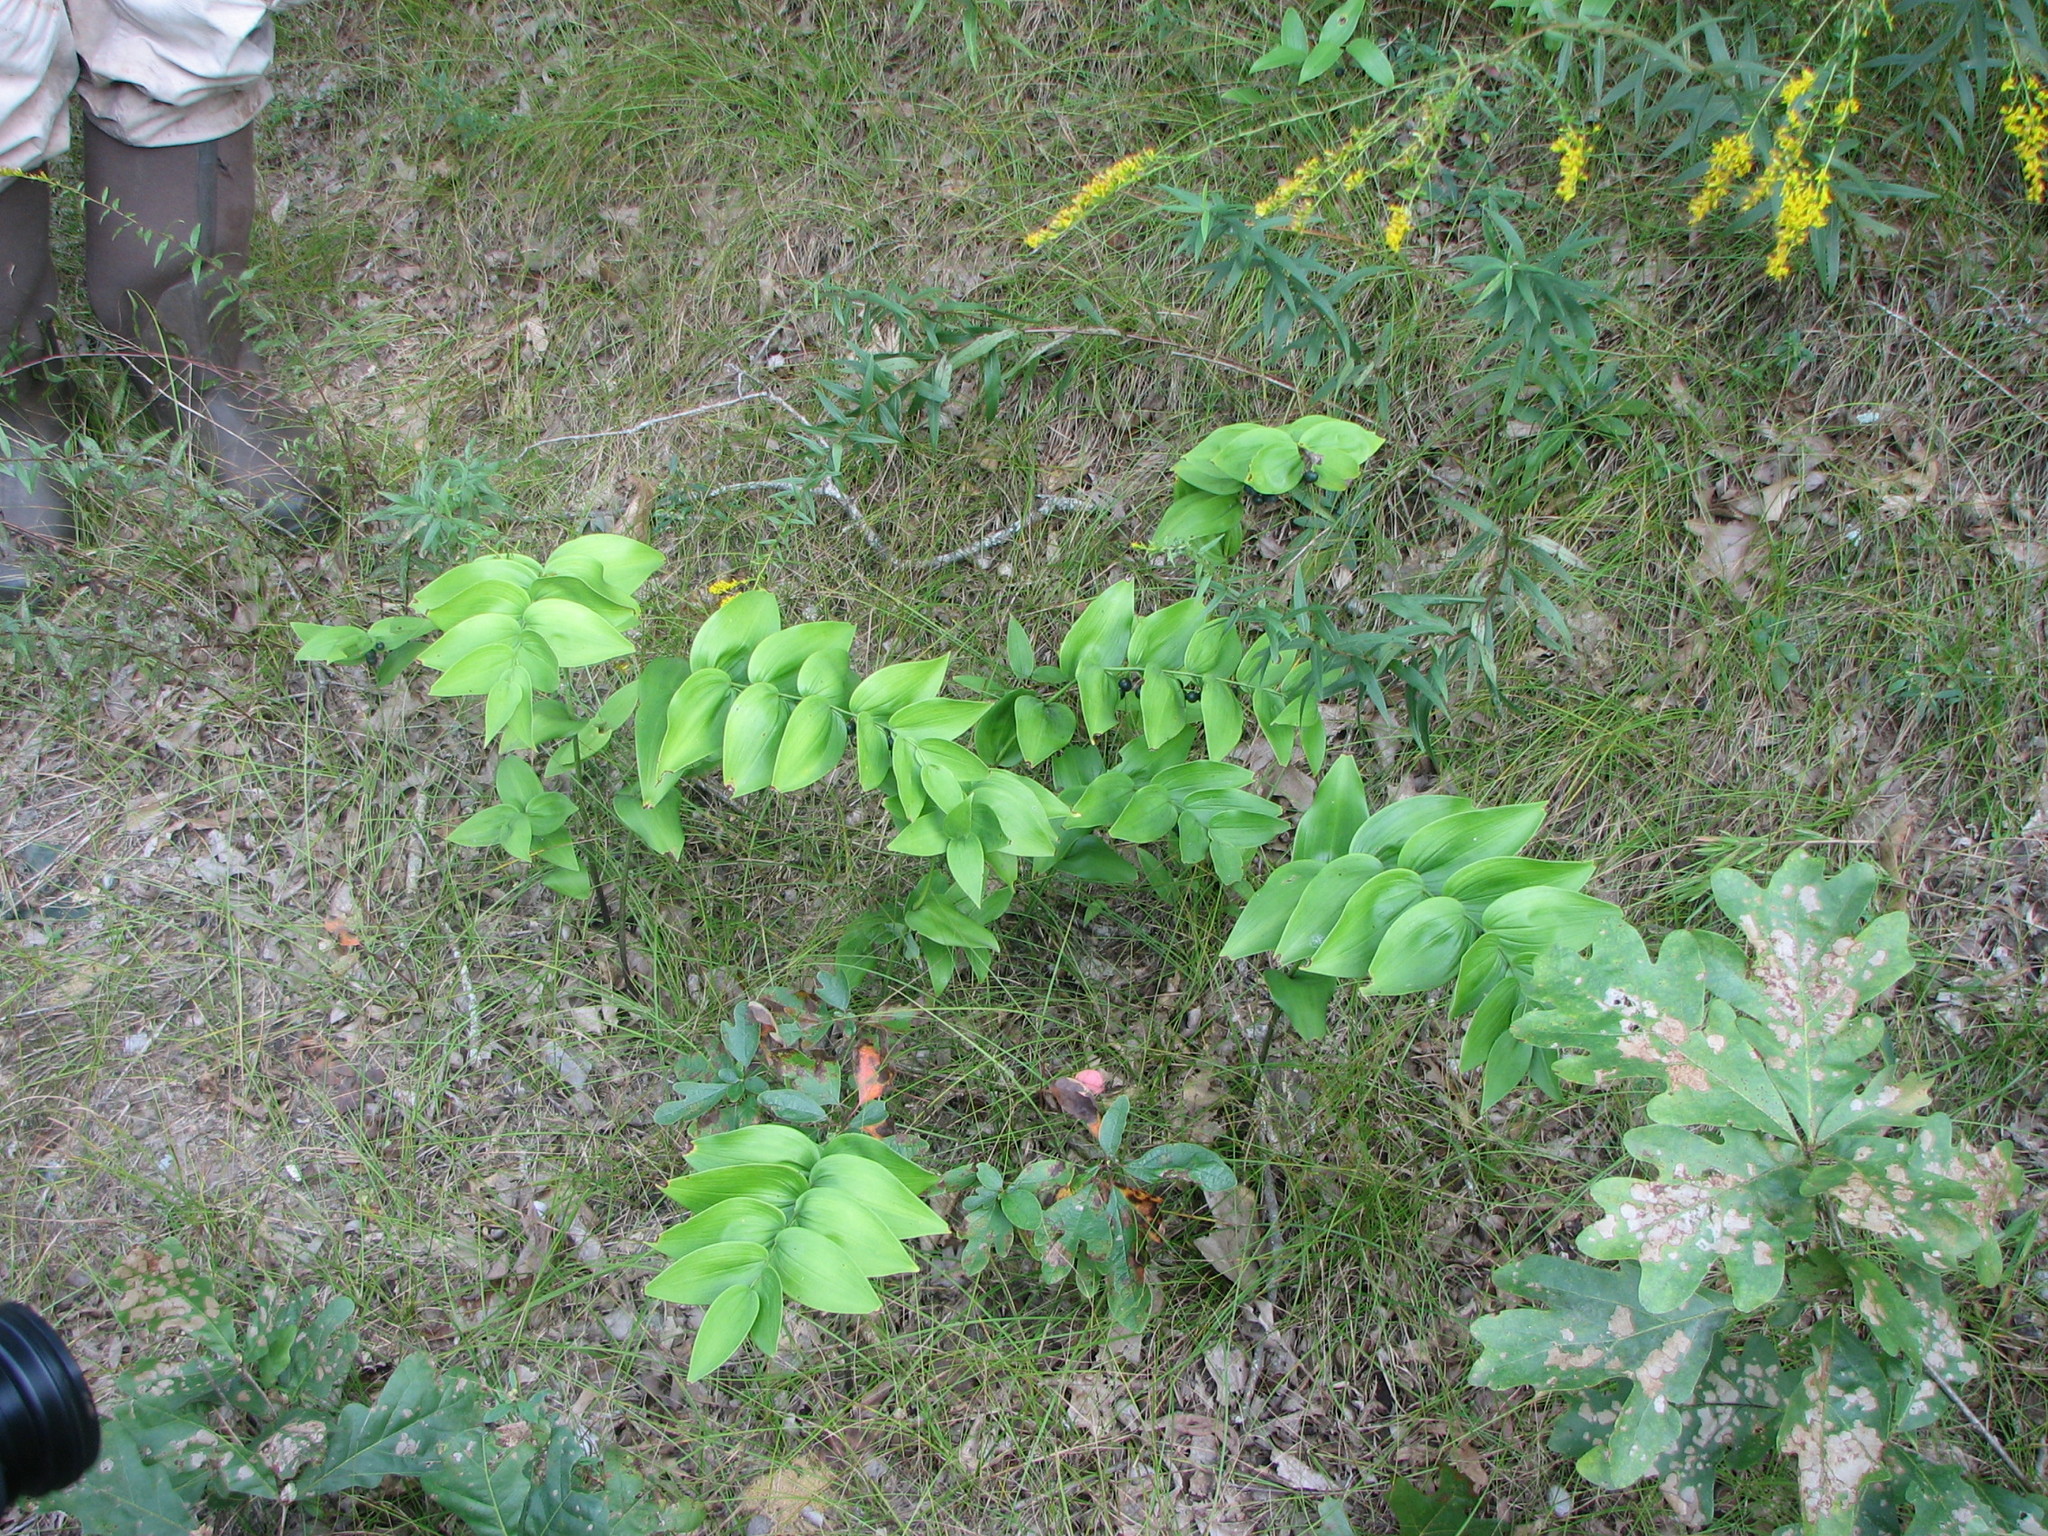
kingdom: Plantae
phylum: Tracheophyta
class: Liliopsida
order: Asparagales
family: Asparagaceae
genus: Polygonatum
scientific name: Polygonatum biflorum
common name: American solomon's-seal
